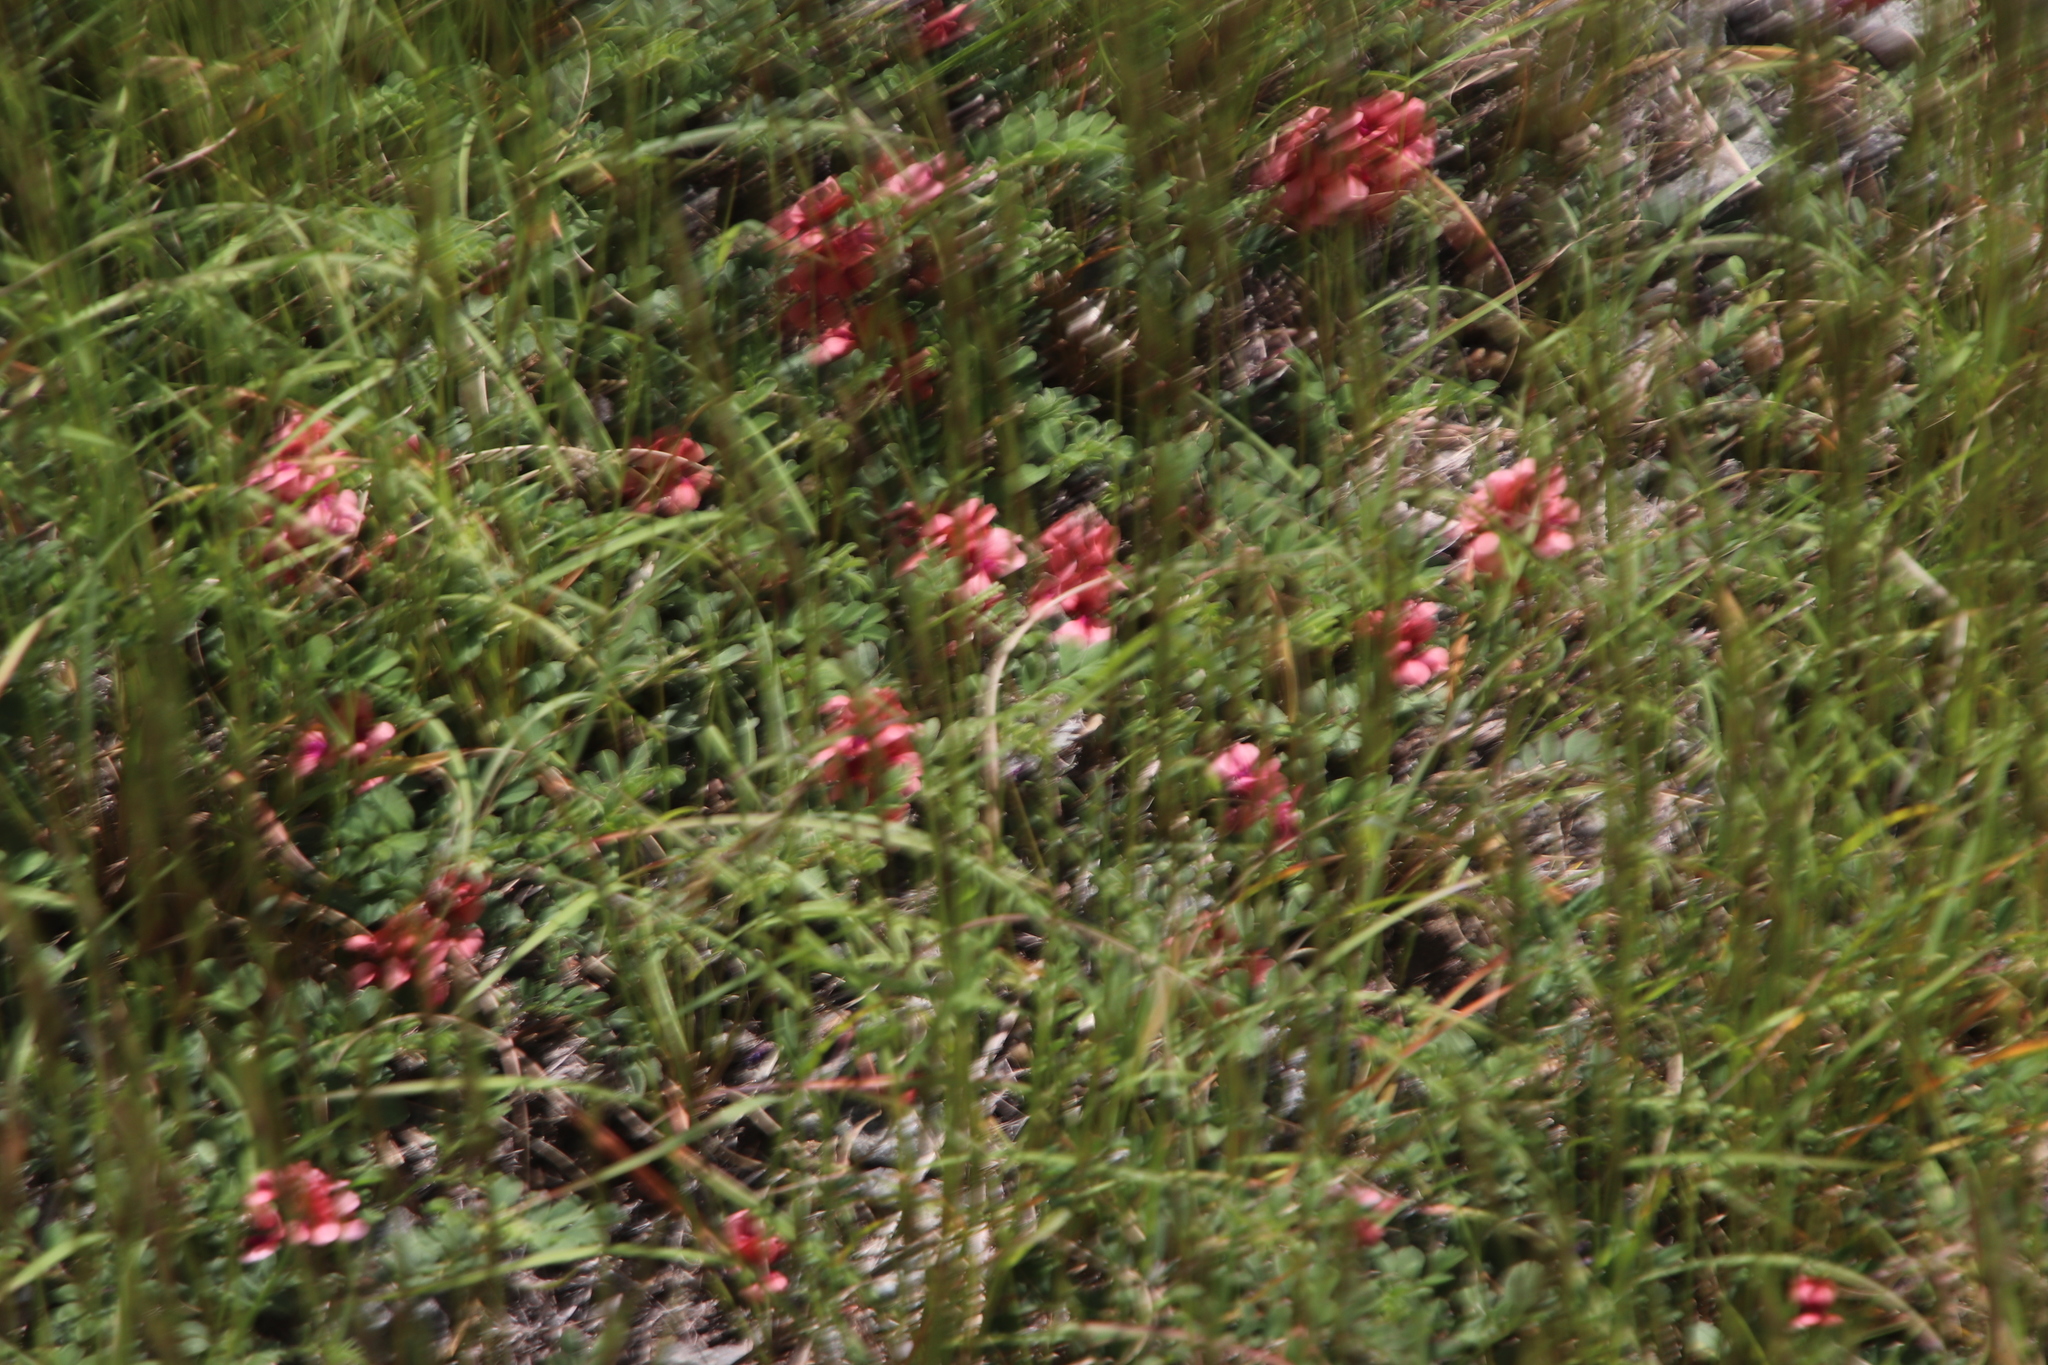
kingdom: Plantae
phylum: Tracheophyta
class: Magnoliopsida
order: Fabales
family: Fabaceae
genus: Indigofera
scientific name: Indigofera alternans
